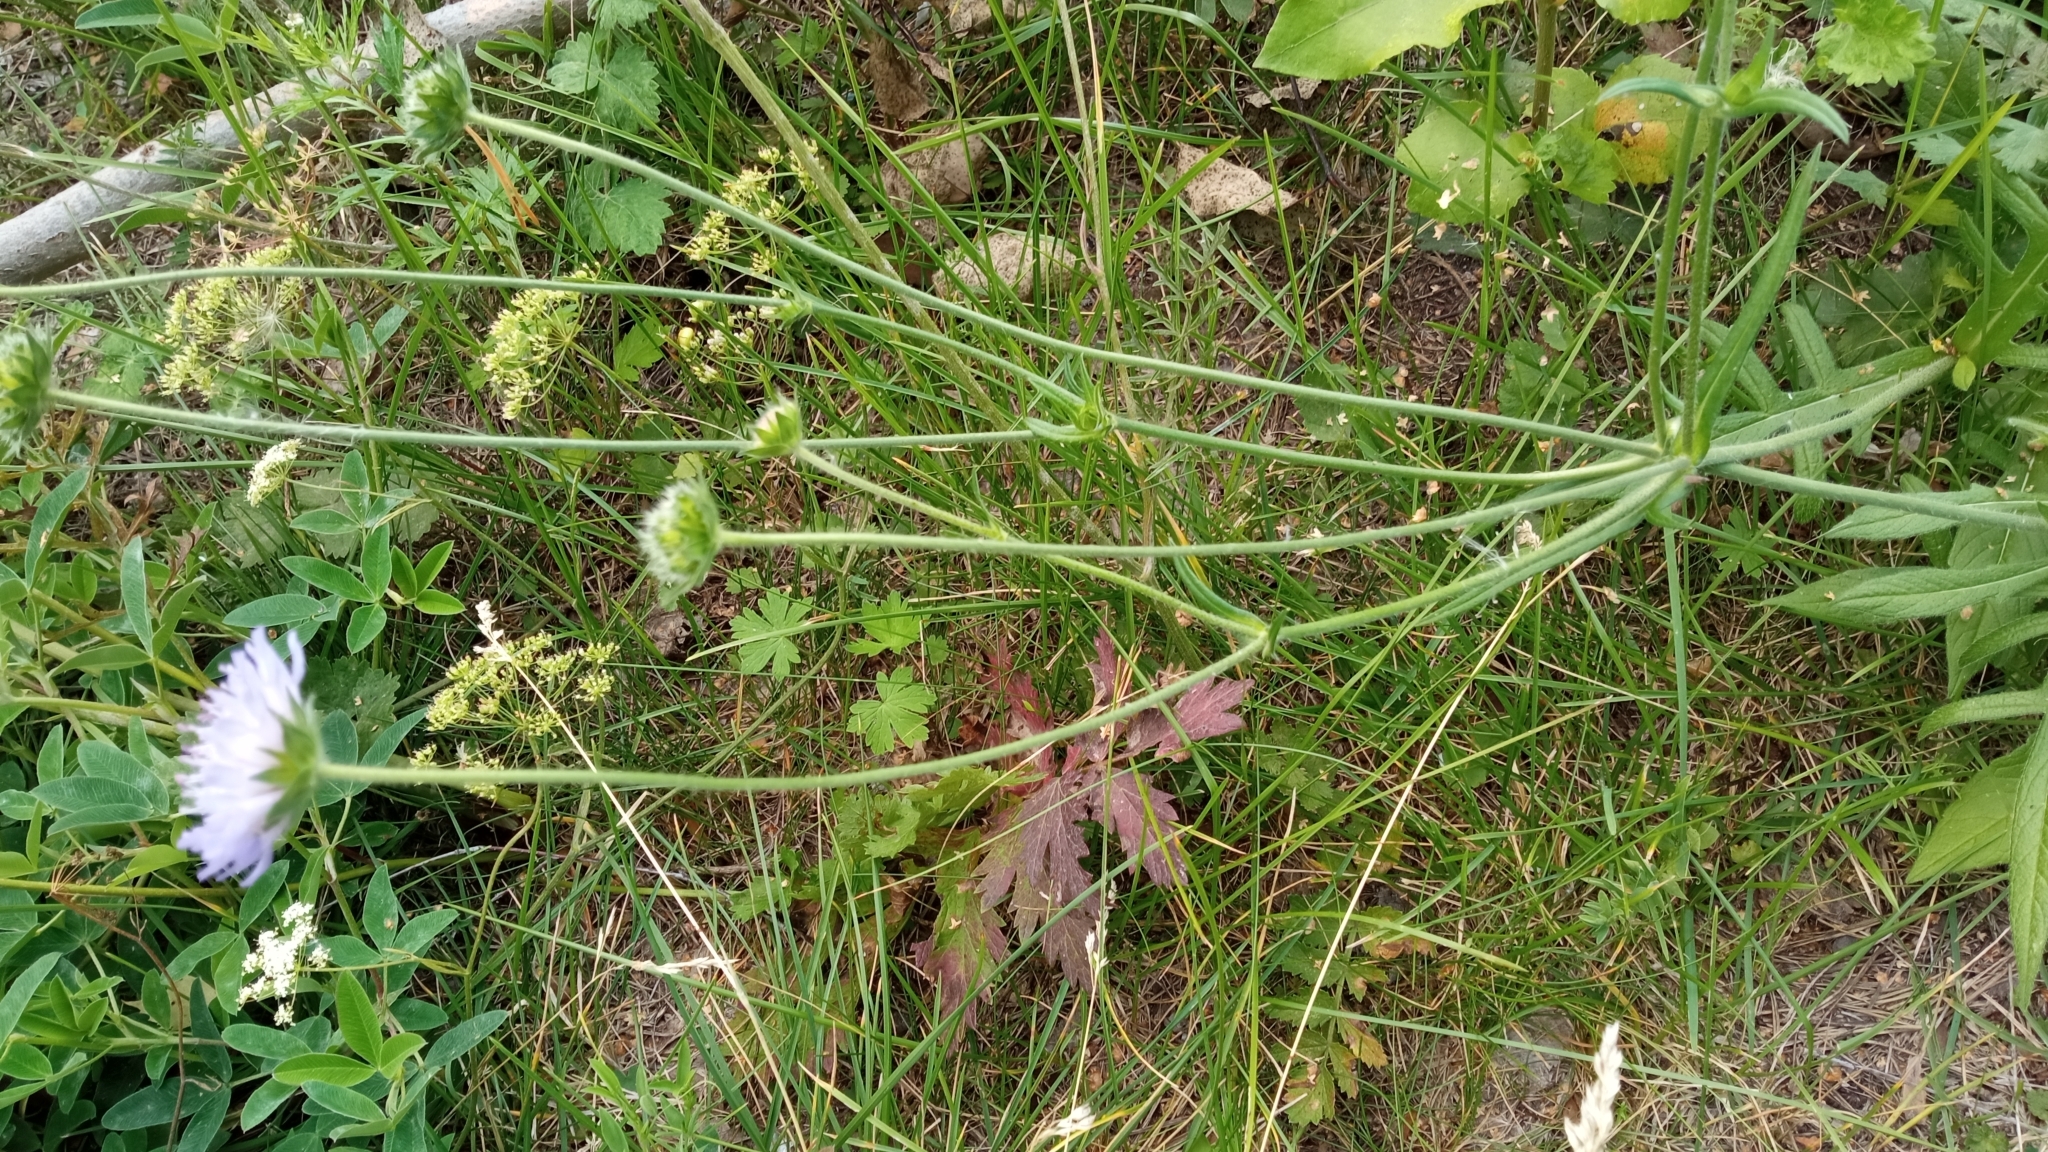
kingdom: Plantae
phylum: Tracheophyta
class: Magnoliopsida
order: Dipsacales
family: Caprifoliaceae
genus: Knautia
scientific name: Knautia arvensis
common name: Field scabiosa
